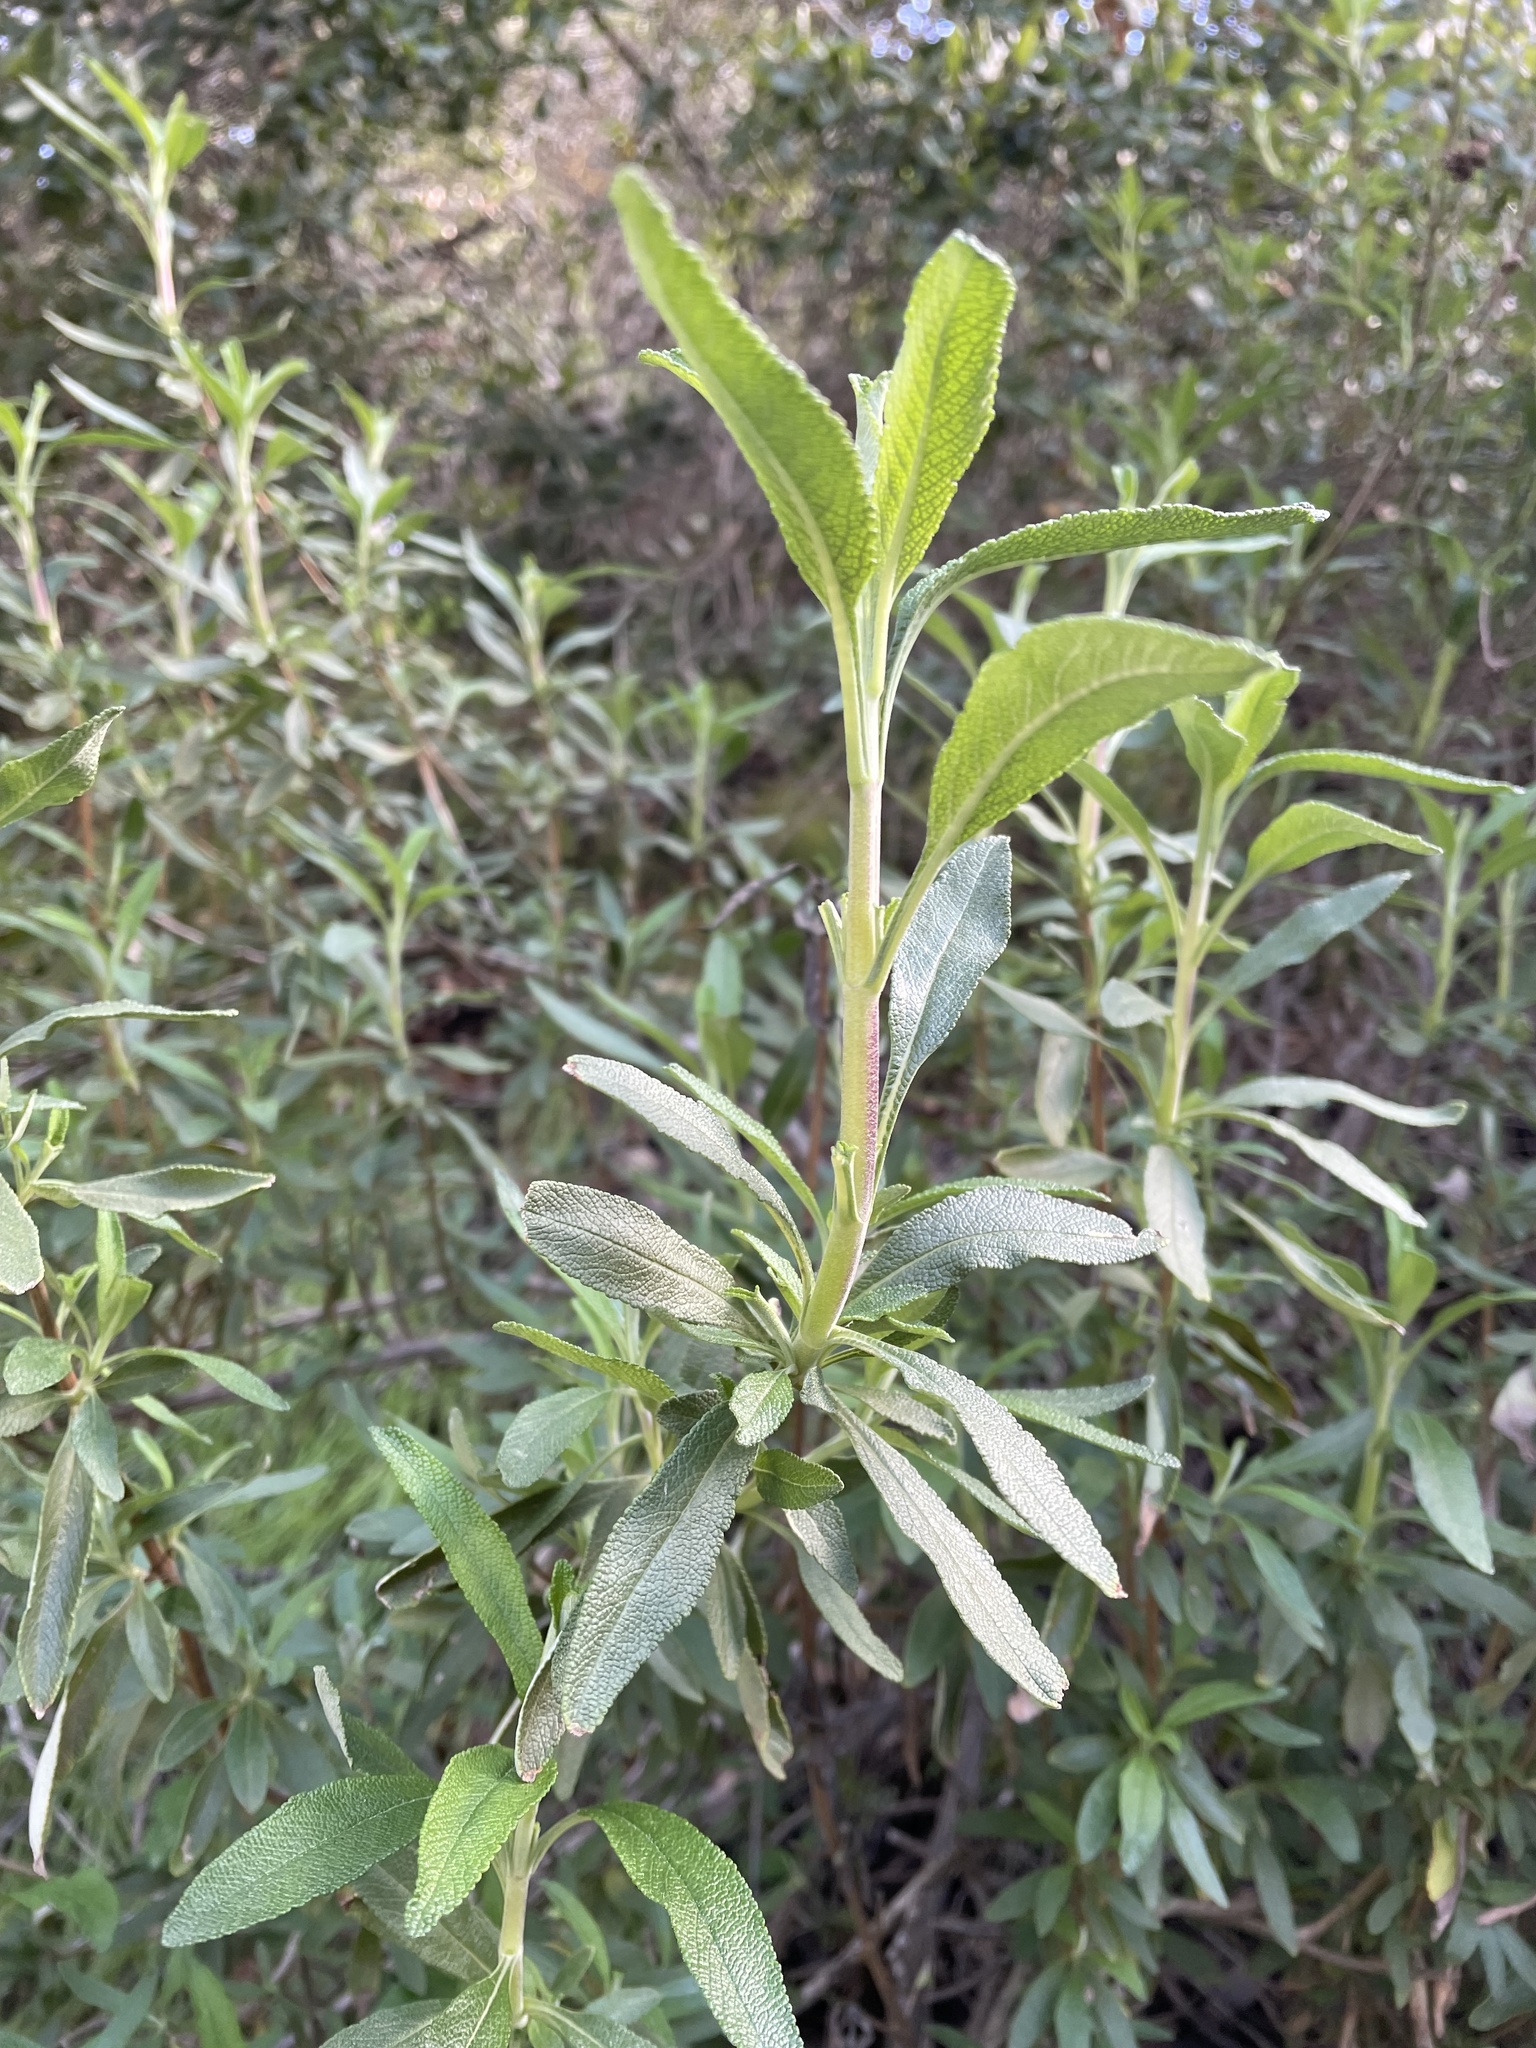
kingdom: Plantae
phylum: Tracheophyta
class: Magnoliopsida
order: Lamiales
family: Lamiaceae
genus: Salvia
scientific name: Salvia mellifera
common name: Black sage
